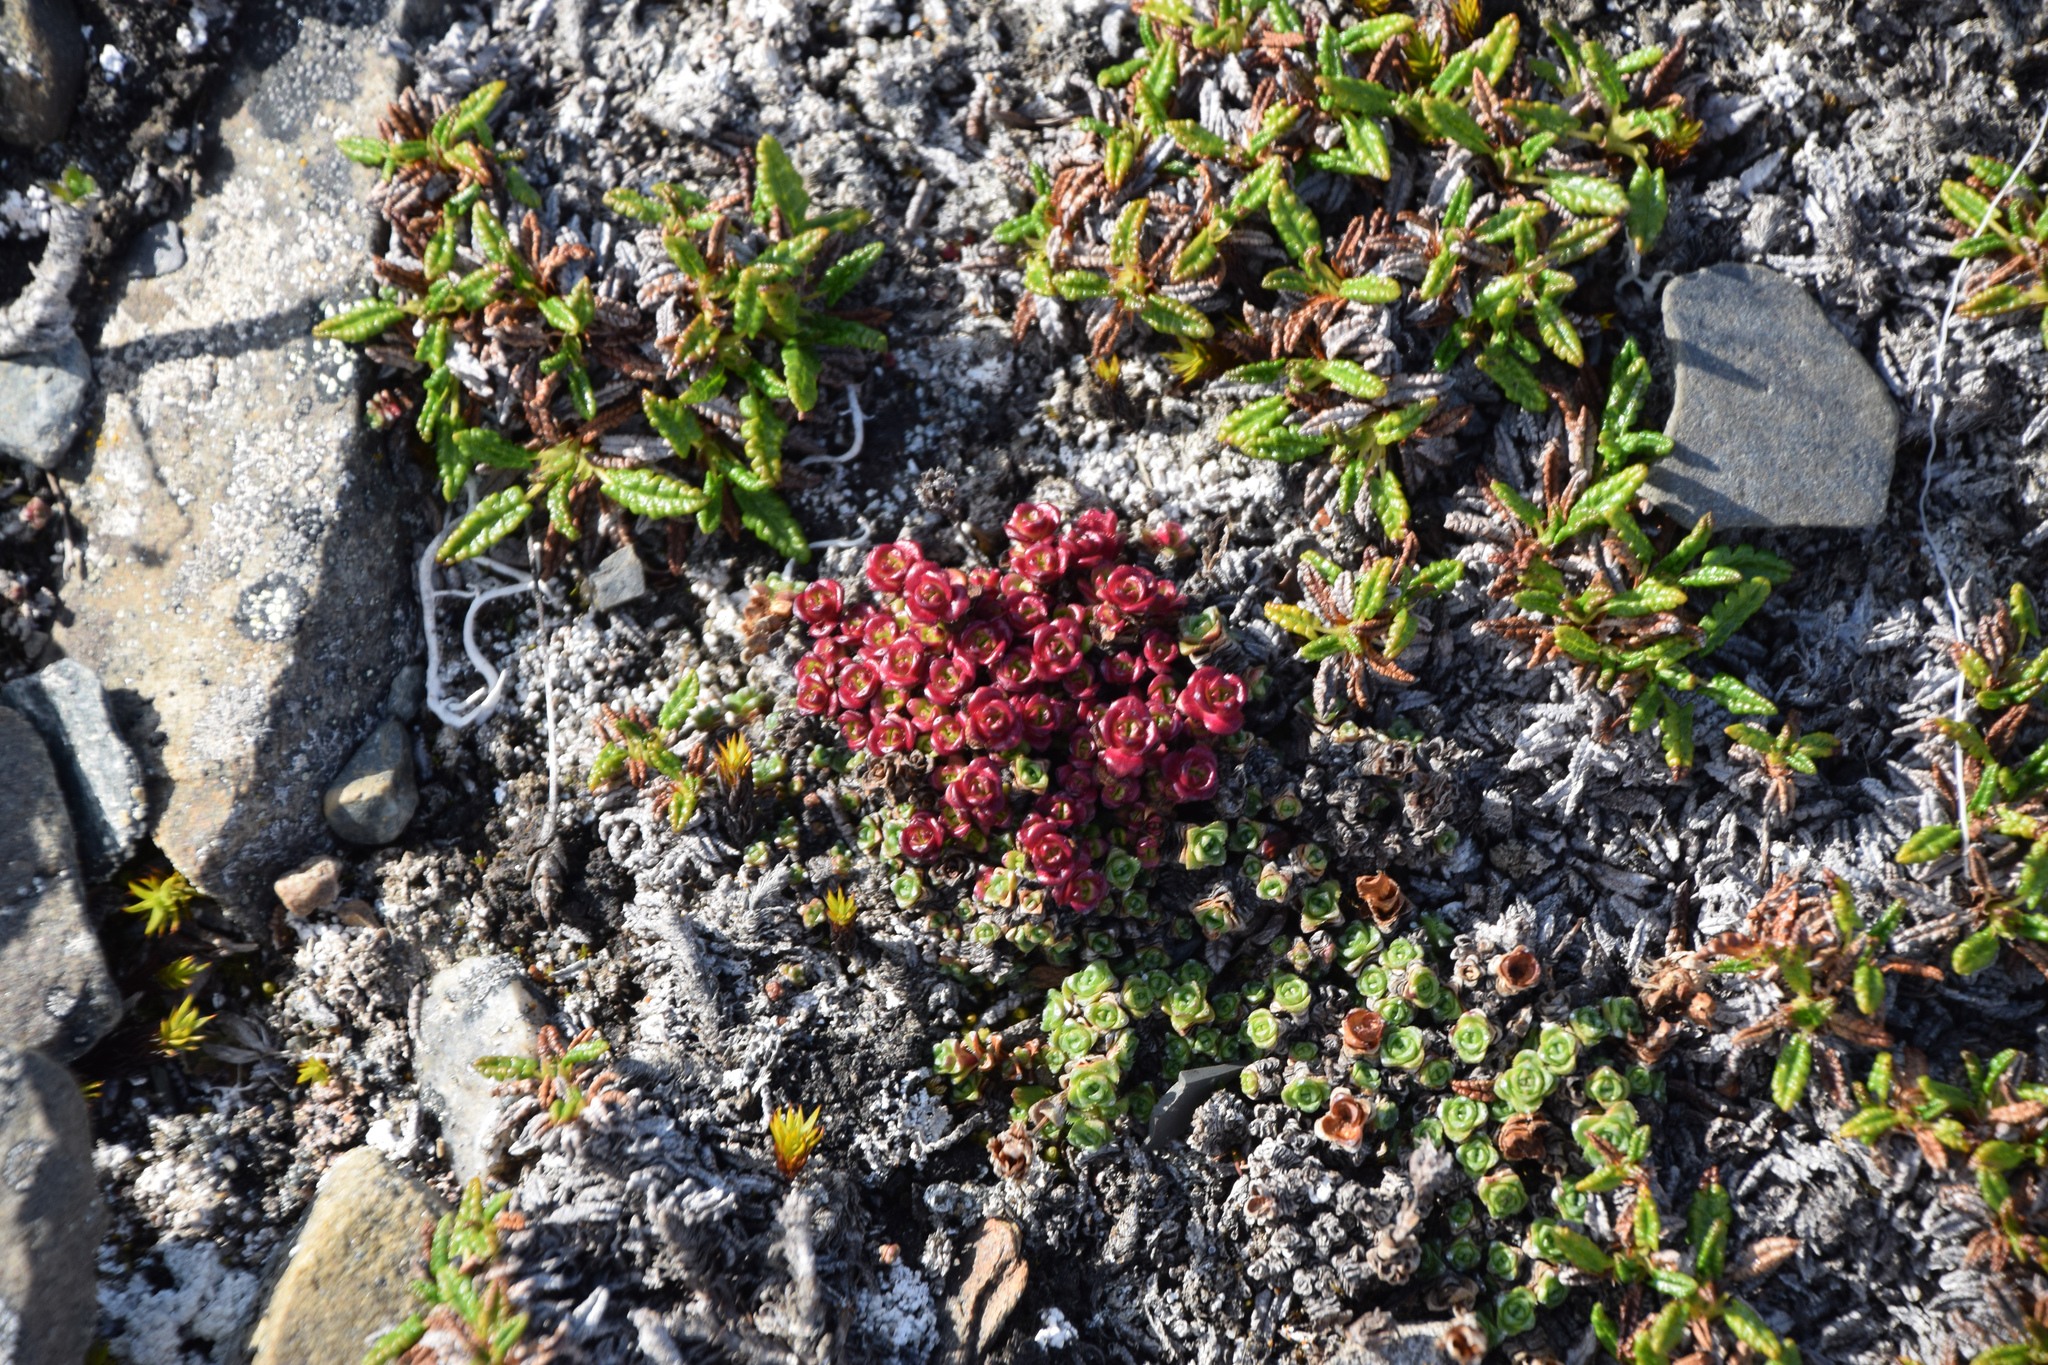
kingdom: Plantae
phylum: Tracheophyta
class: Magnoliopsida
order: Saxifragales
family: Saxifragaceae
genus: Saxifraga
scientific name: Saxifraga oppositifolia
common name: Purple saxifrage
